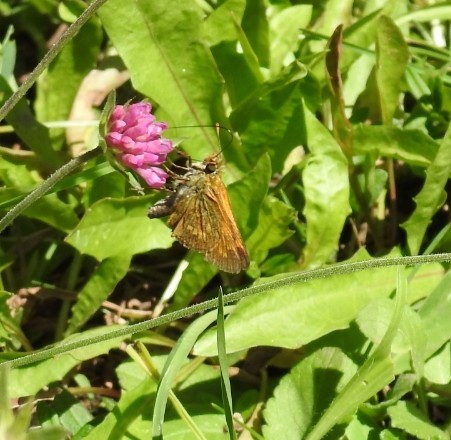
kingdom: Animalia
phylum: Arthropoda
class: Insecta
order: Lepidoptera
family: Hesperiidae
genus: Ochlodes
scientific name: Ochlodes venata
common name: Large skipper
